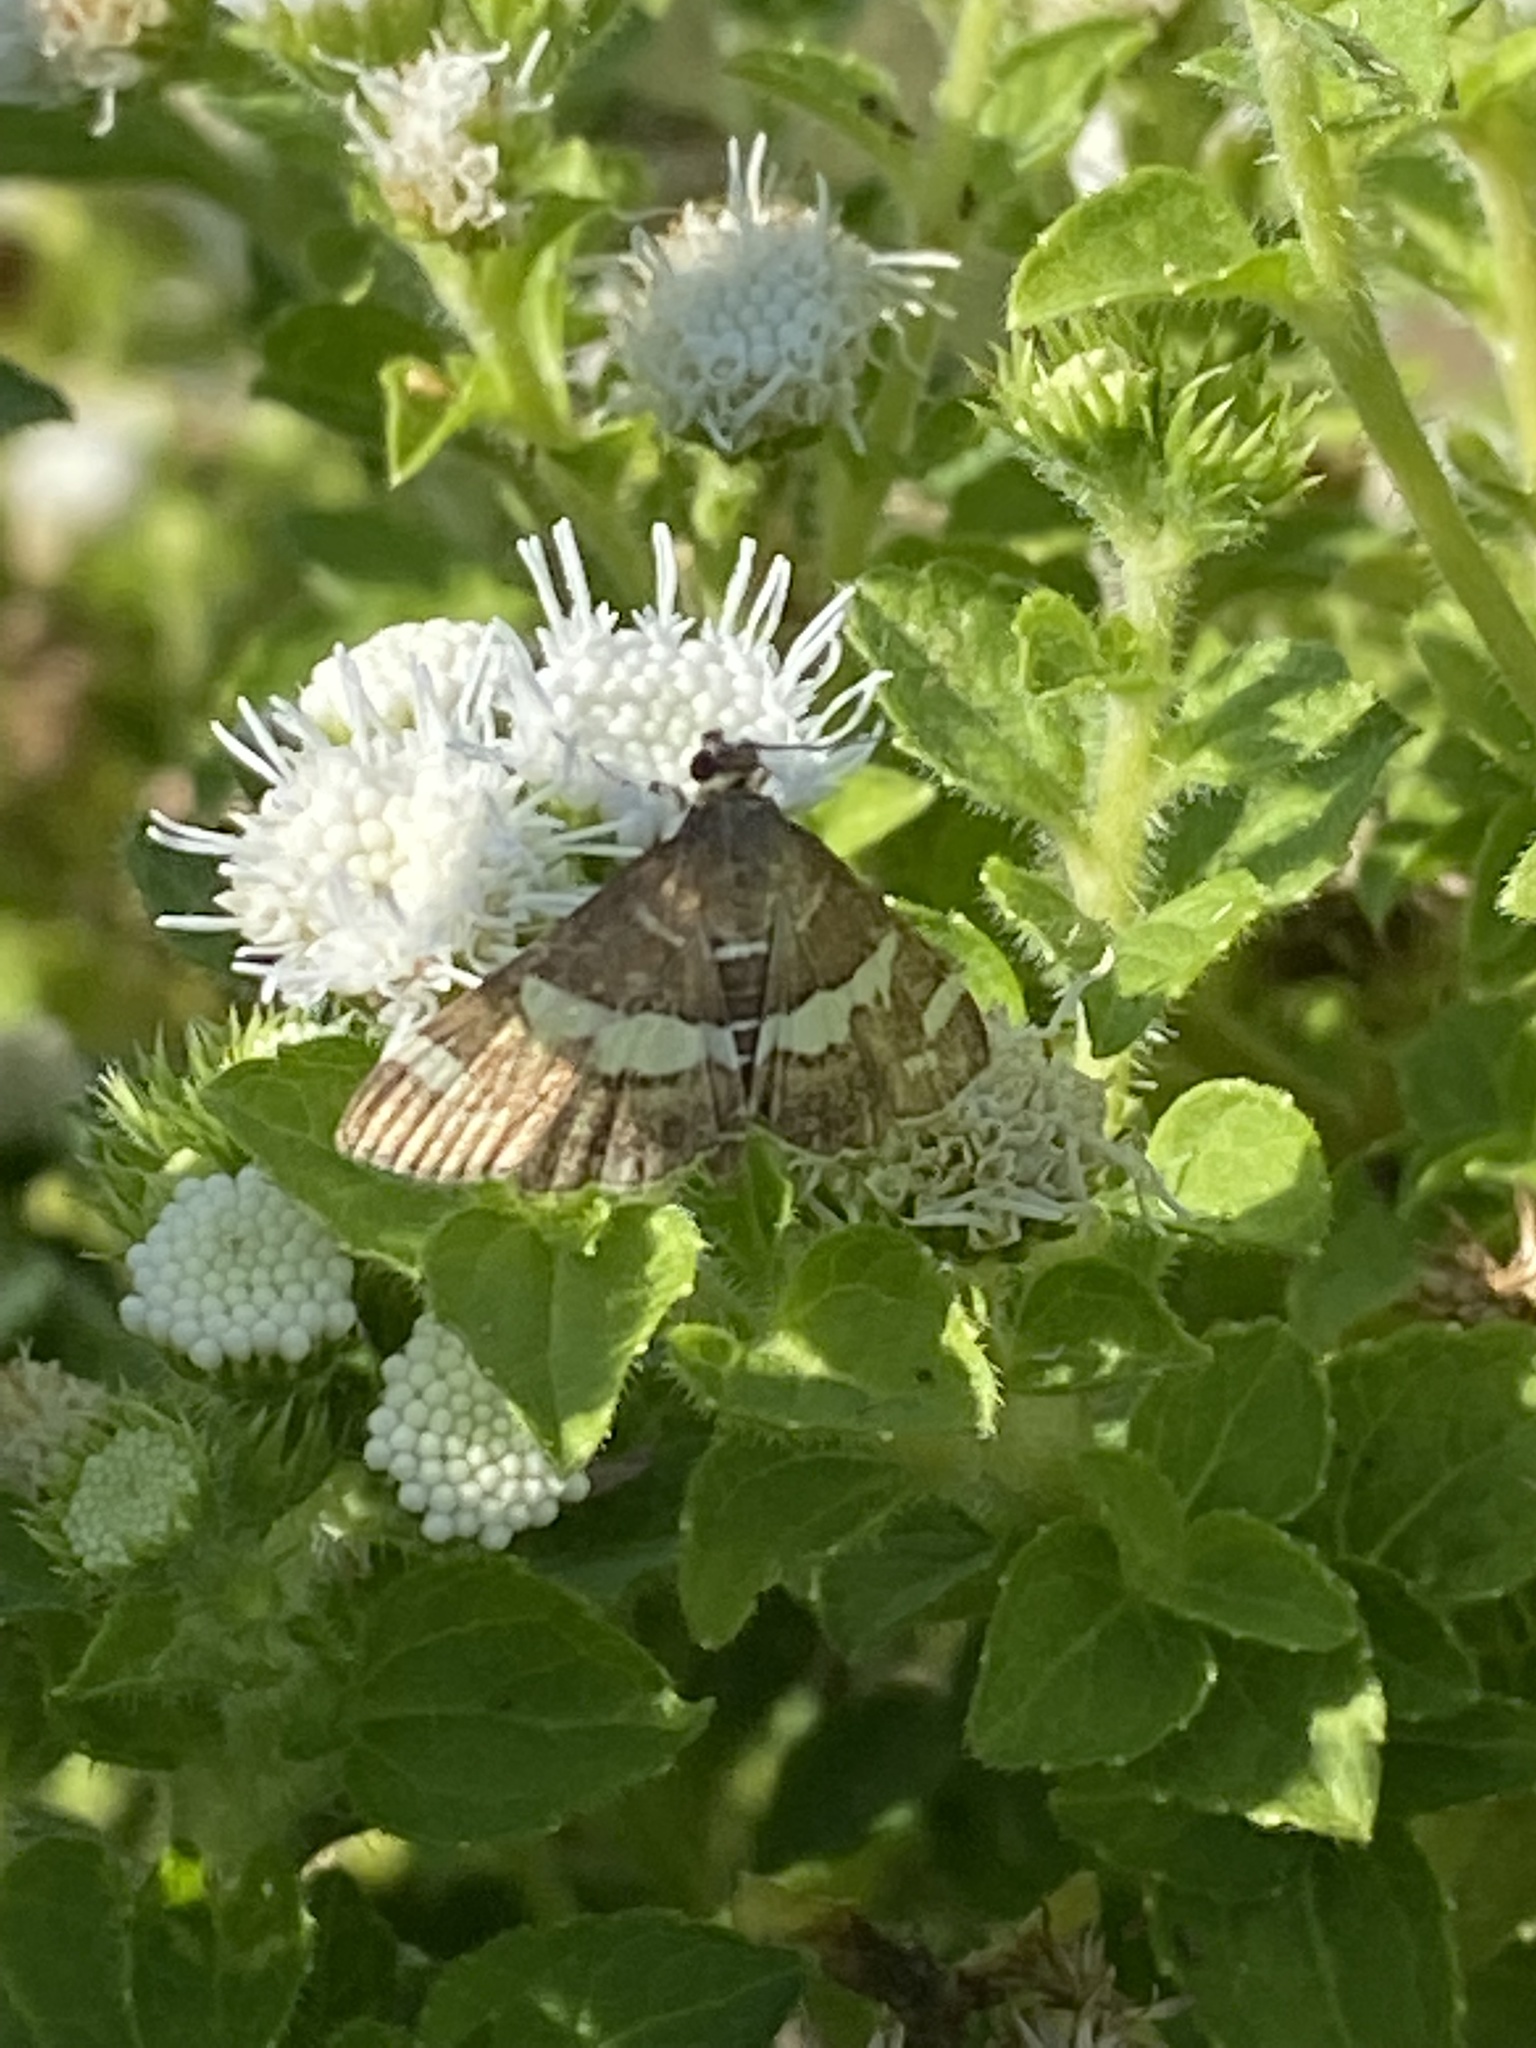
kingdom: Animalia
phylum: Arthropoda
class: Insecta
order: Lepidoptera
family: Crambidae
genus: Spoladea
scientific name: Spoladea recurvalis
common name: Beet webworm moth
